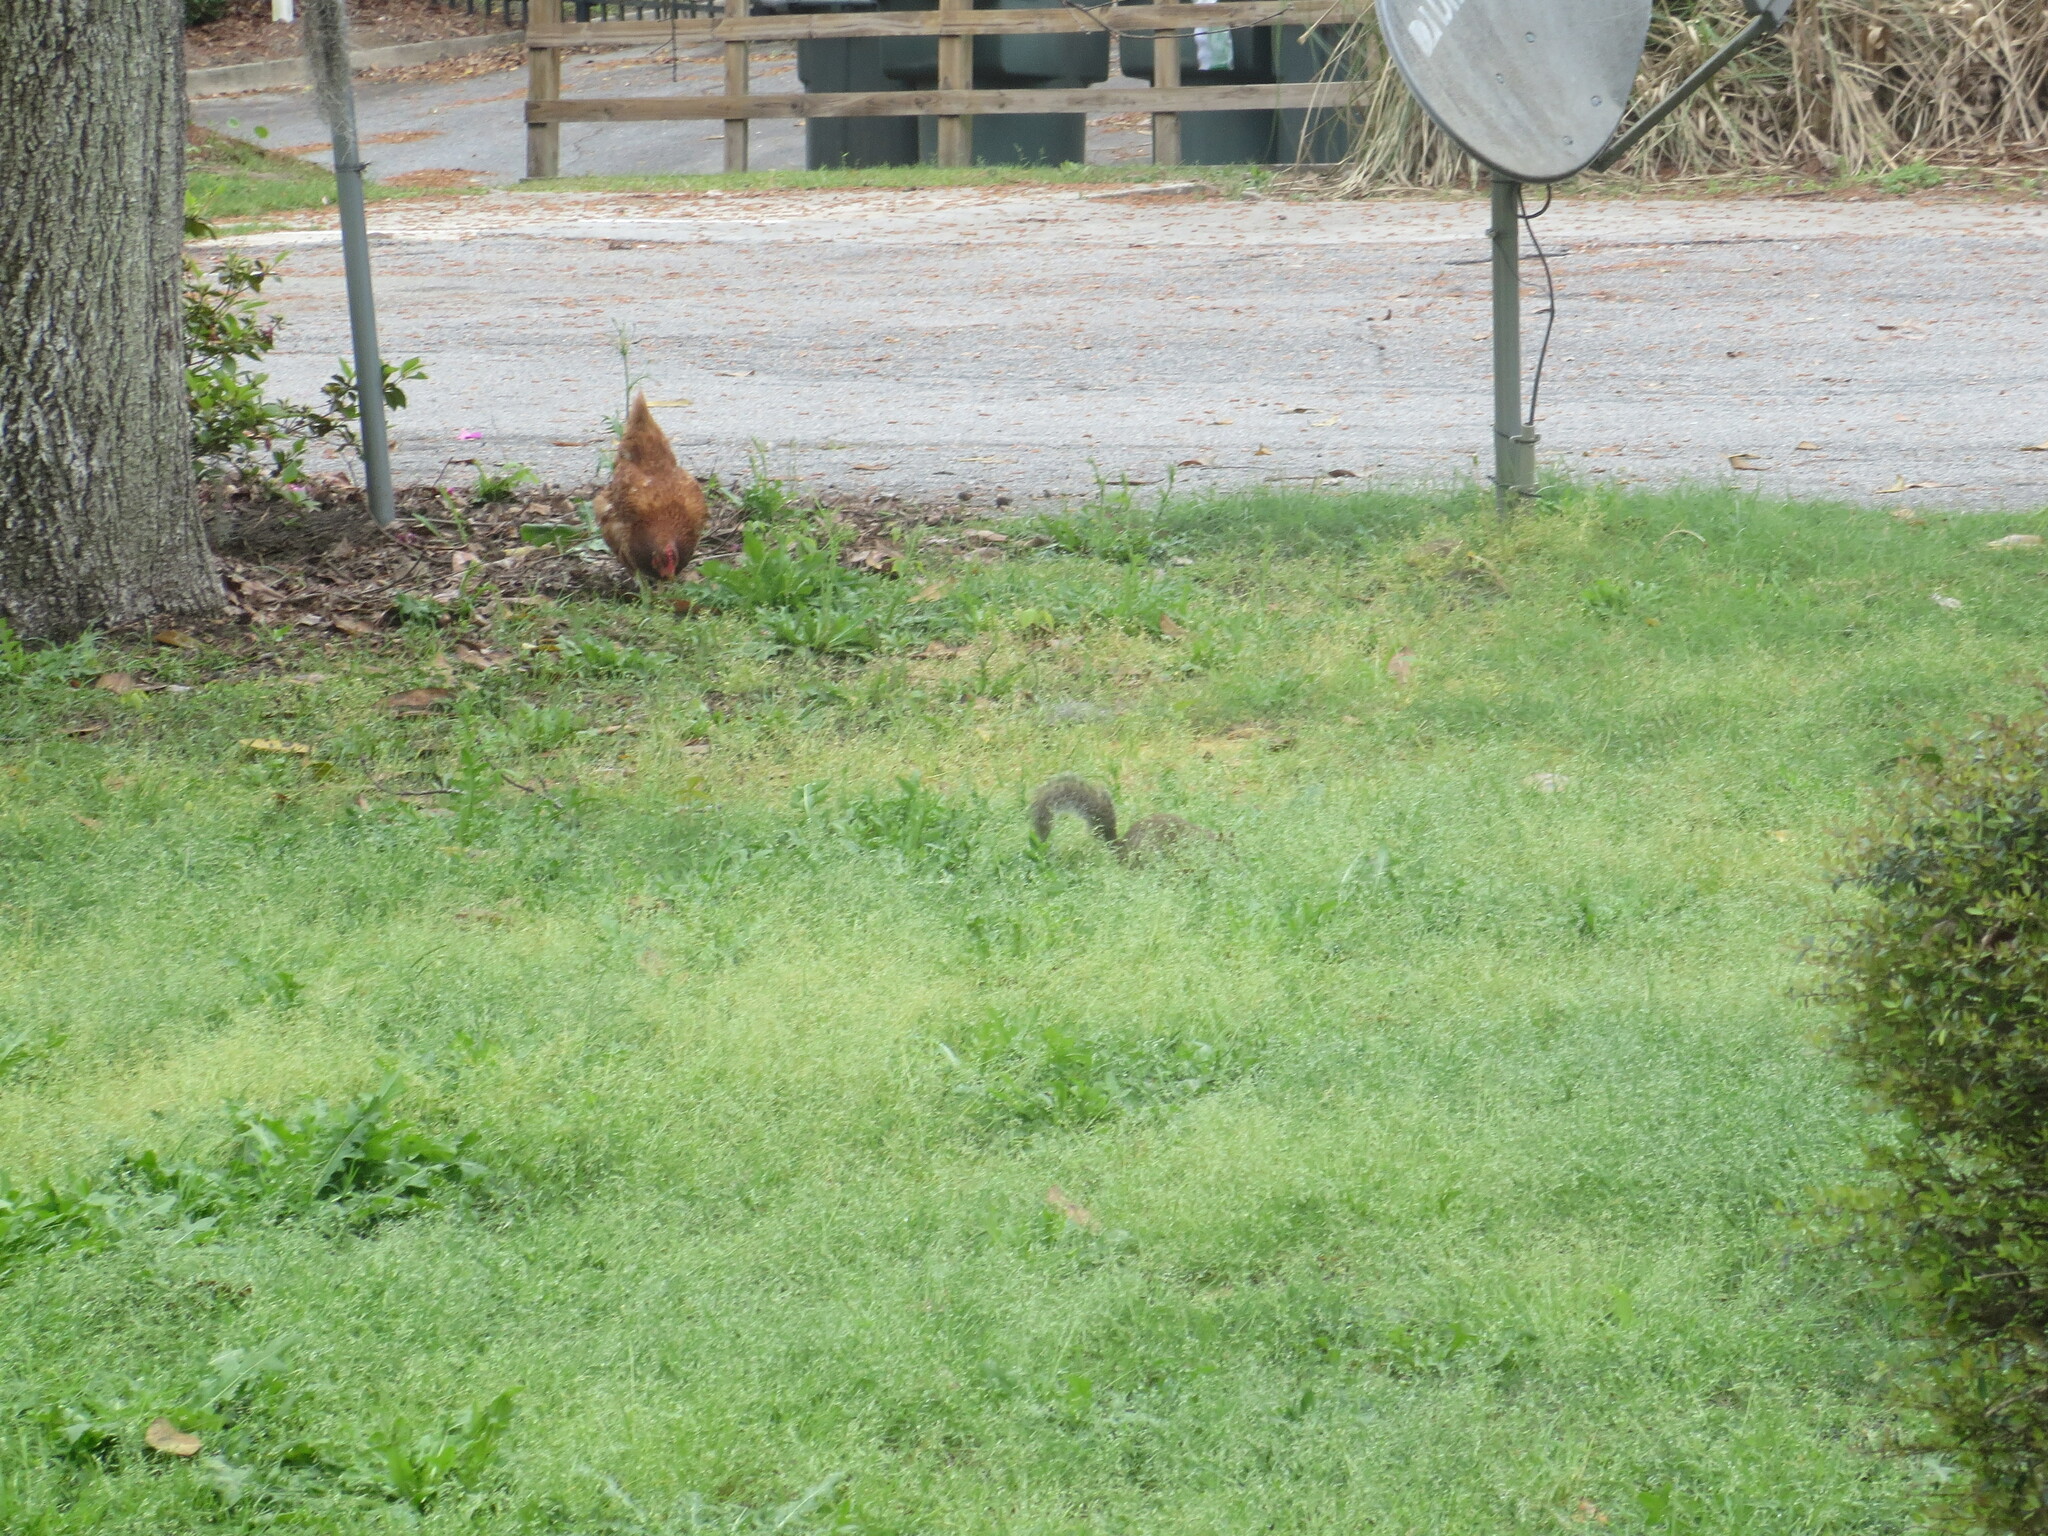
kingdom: Animalia
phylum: Chordata
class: Mammalia
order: Rodentia
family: Sciuridae
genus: Sciurus
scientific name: Sciurus carolinensis
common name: Eastern gray squirrel
